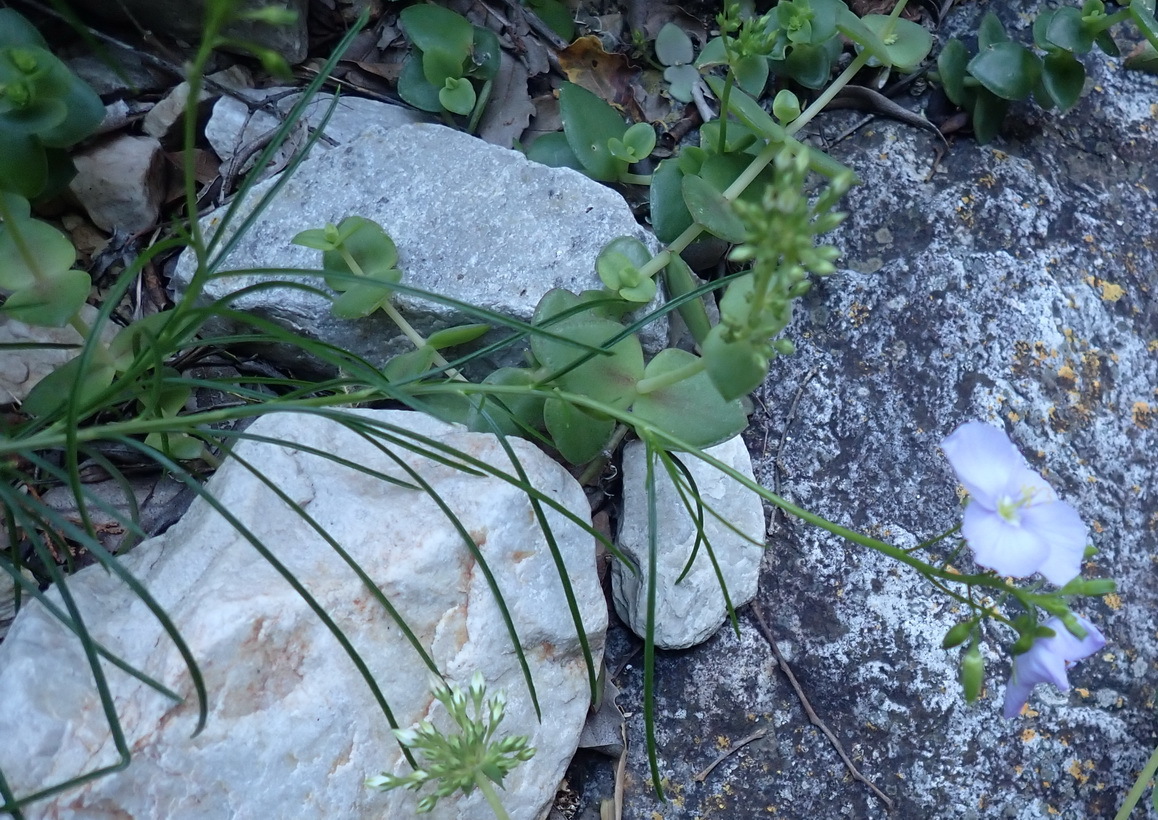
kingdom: Plantae
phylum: Tracheophyta
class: Magnoliopsida
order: Brassicales
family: Brassicaceae
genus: Heliophila
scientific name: Heliophila suavissima
